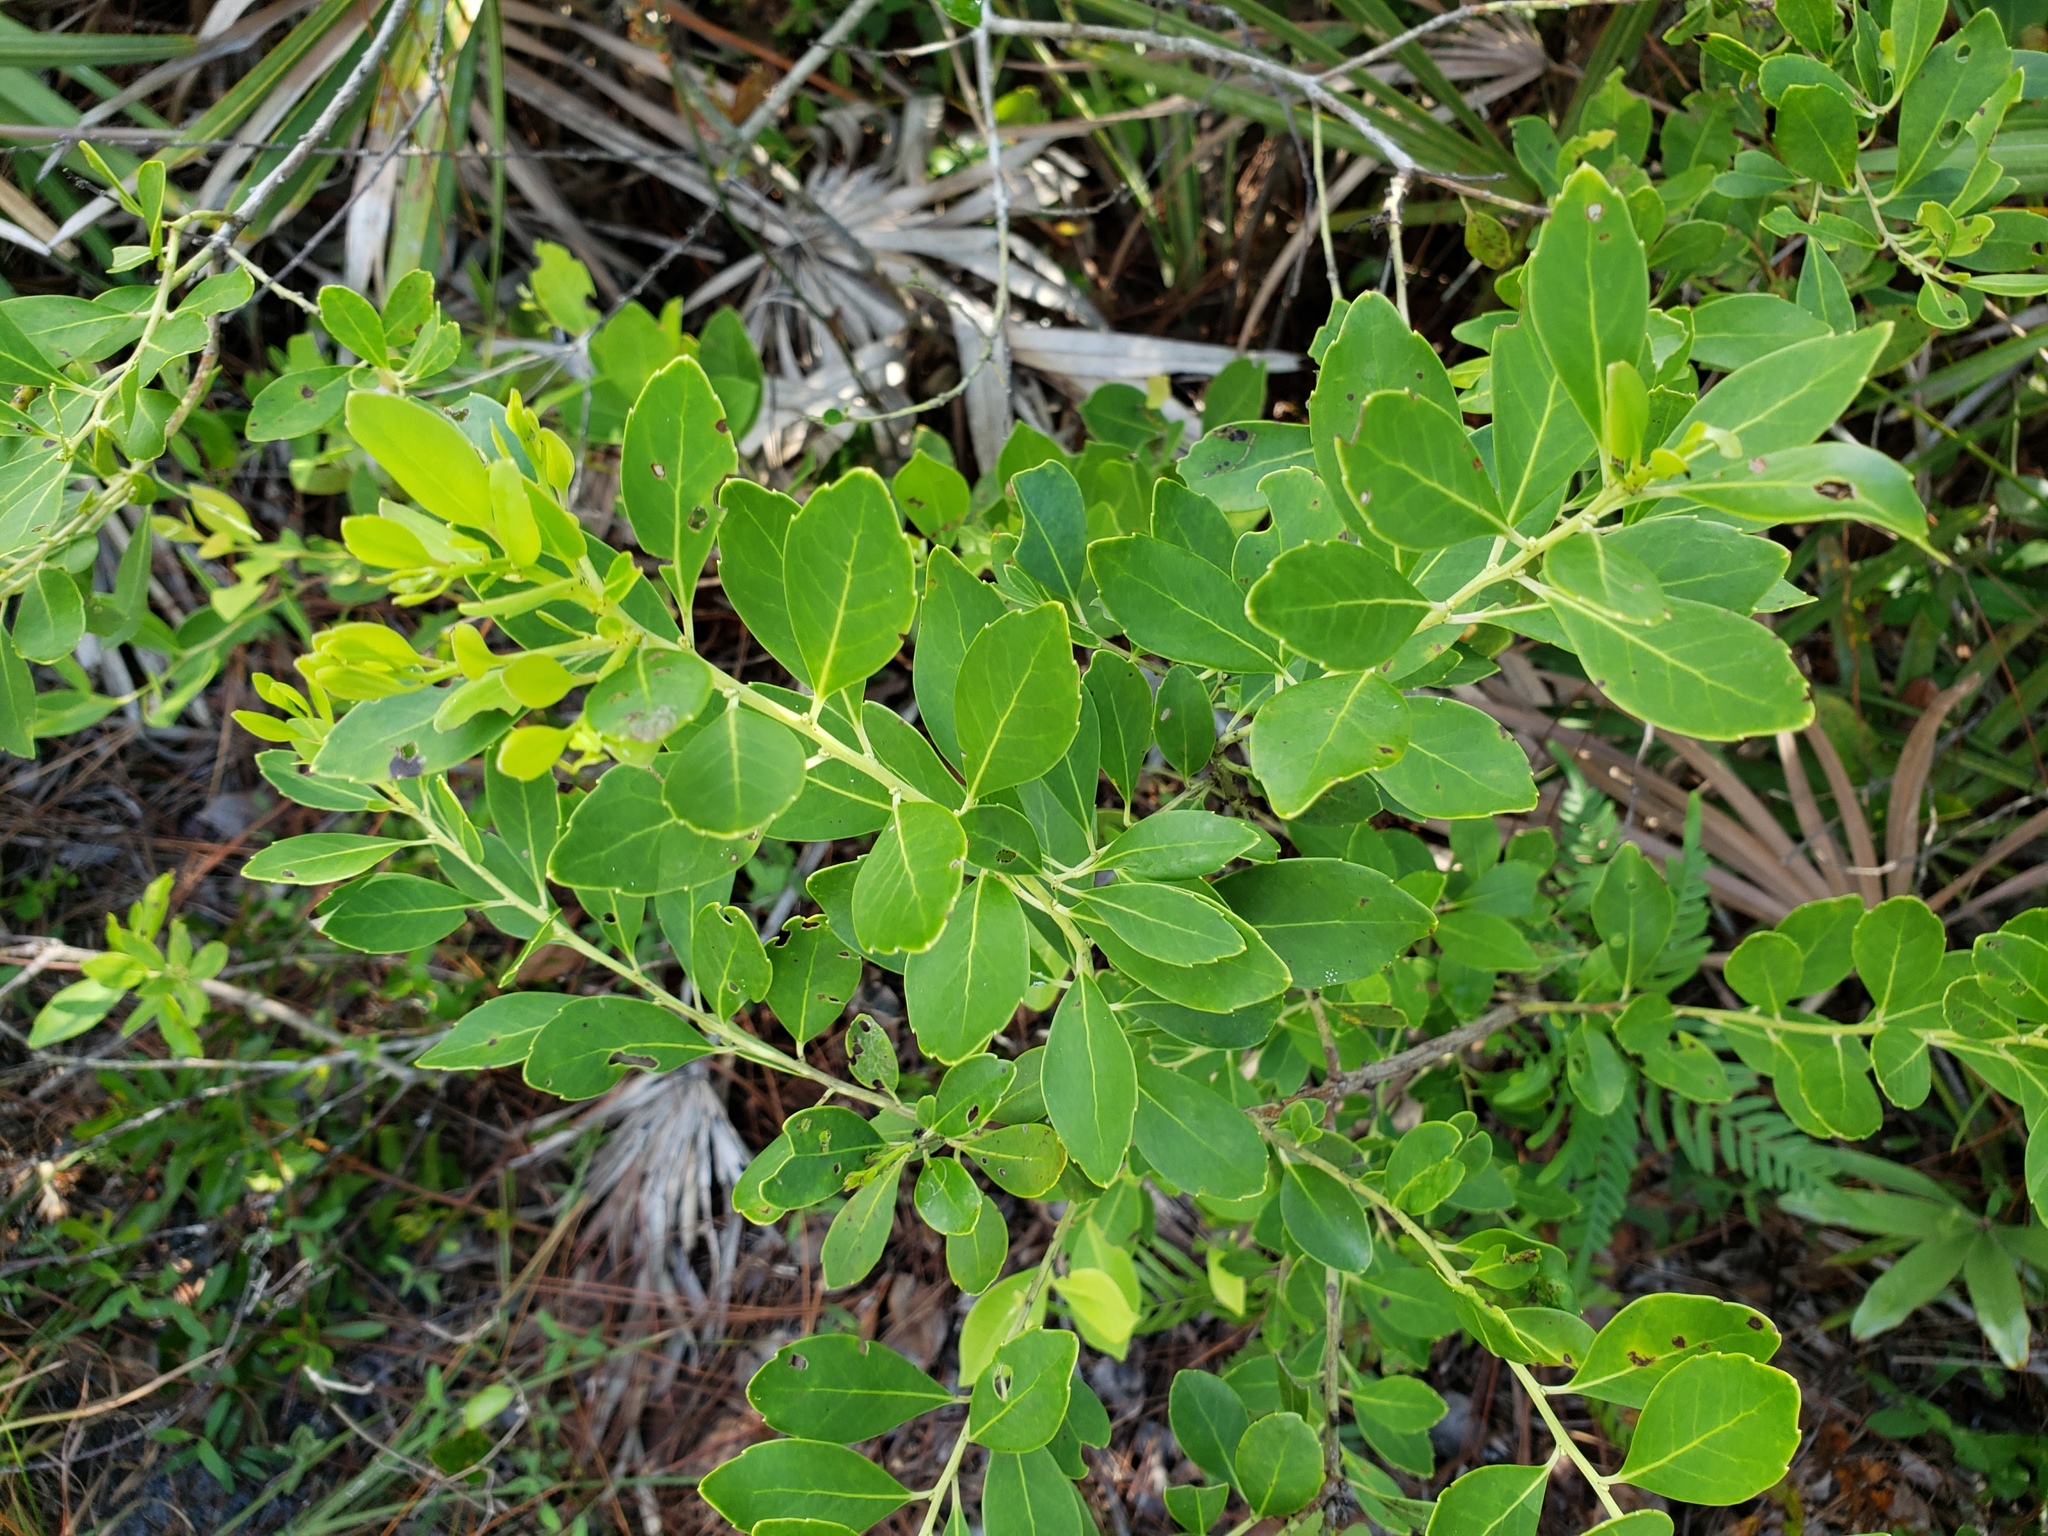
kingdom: Plantae
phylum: Tracheophyta
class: Magnoliopsida
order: Aquifoliales
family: Aquifoliaceae
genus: Ilex
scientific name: Ilex glabra
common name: Bitter gallberry
